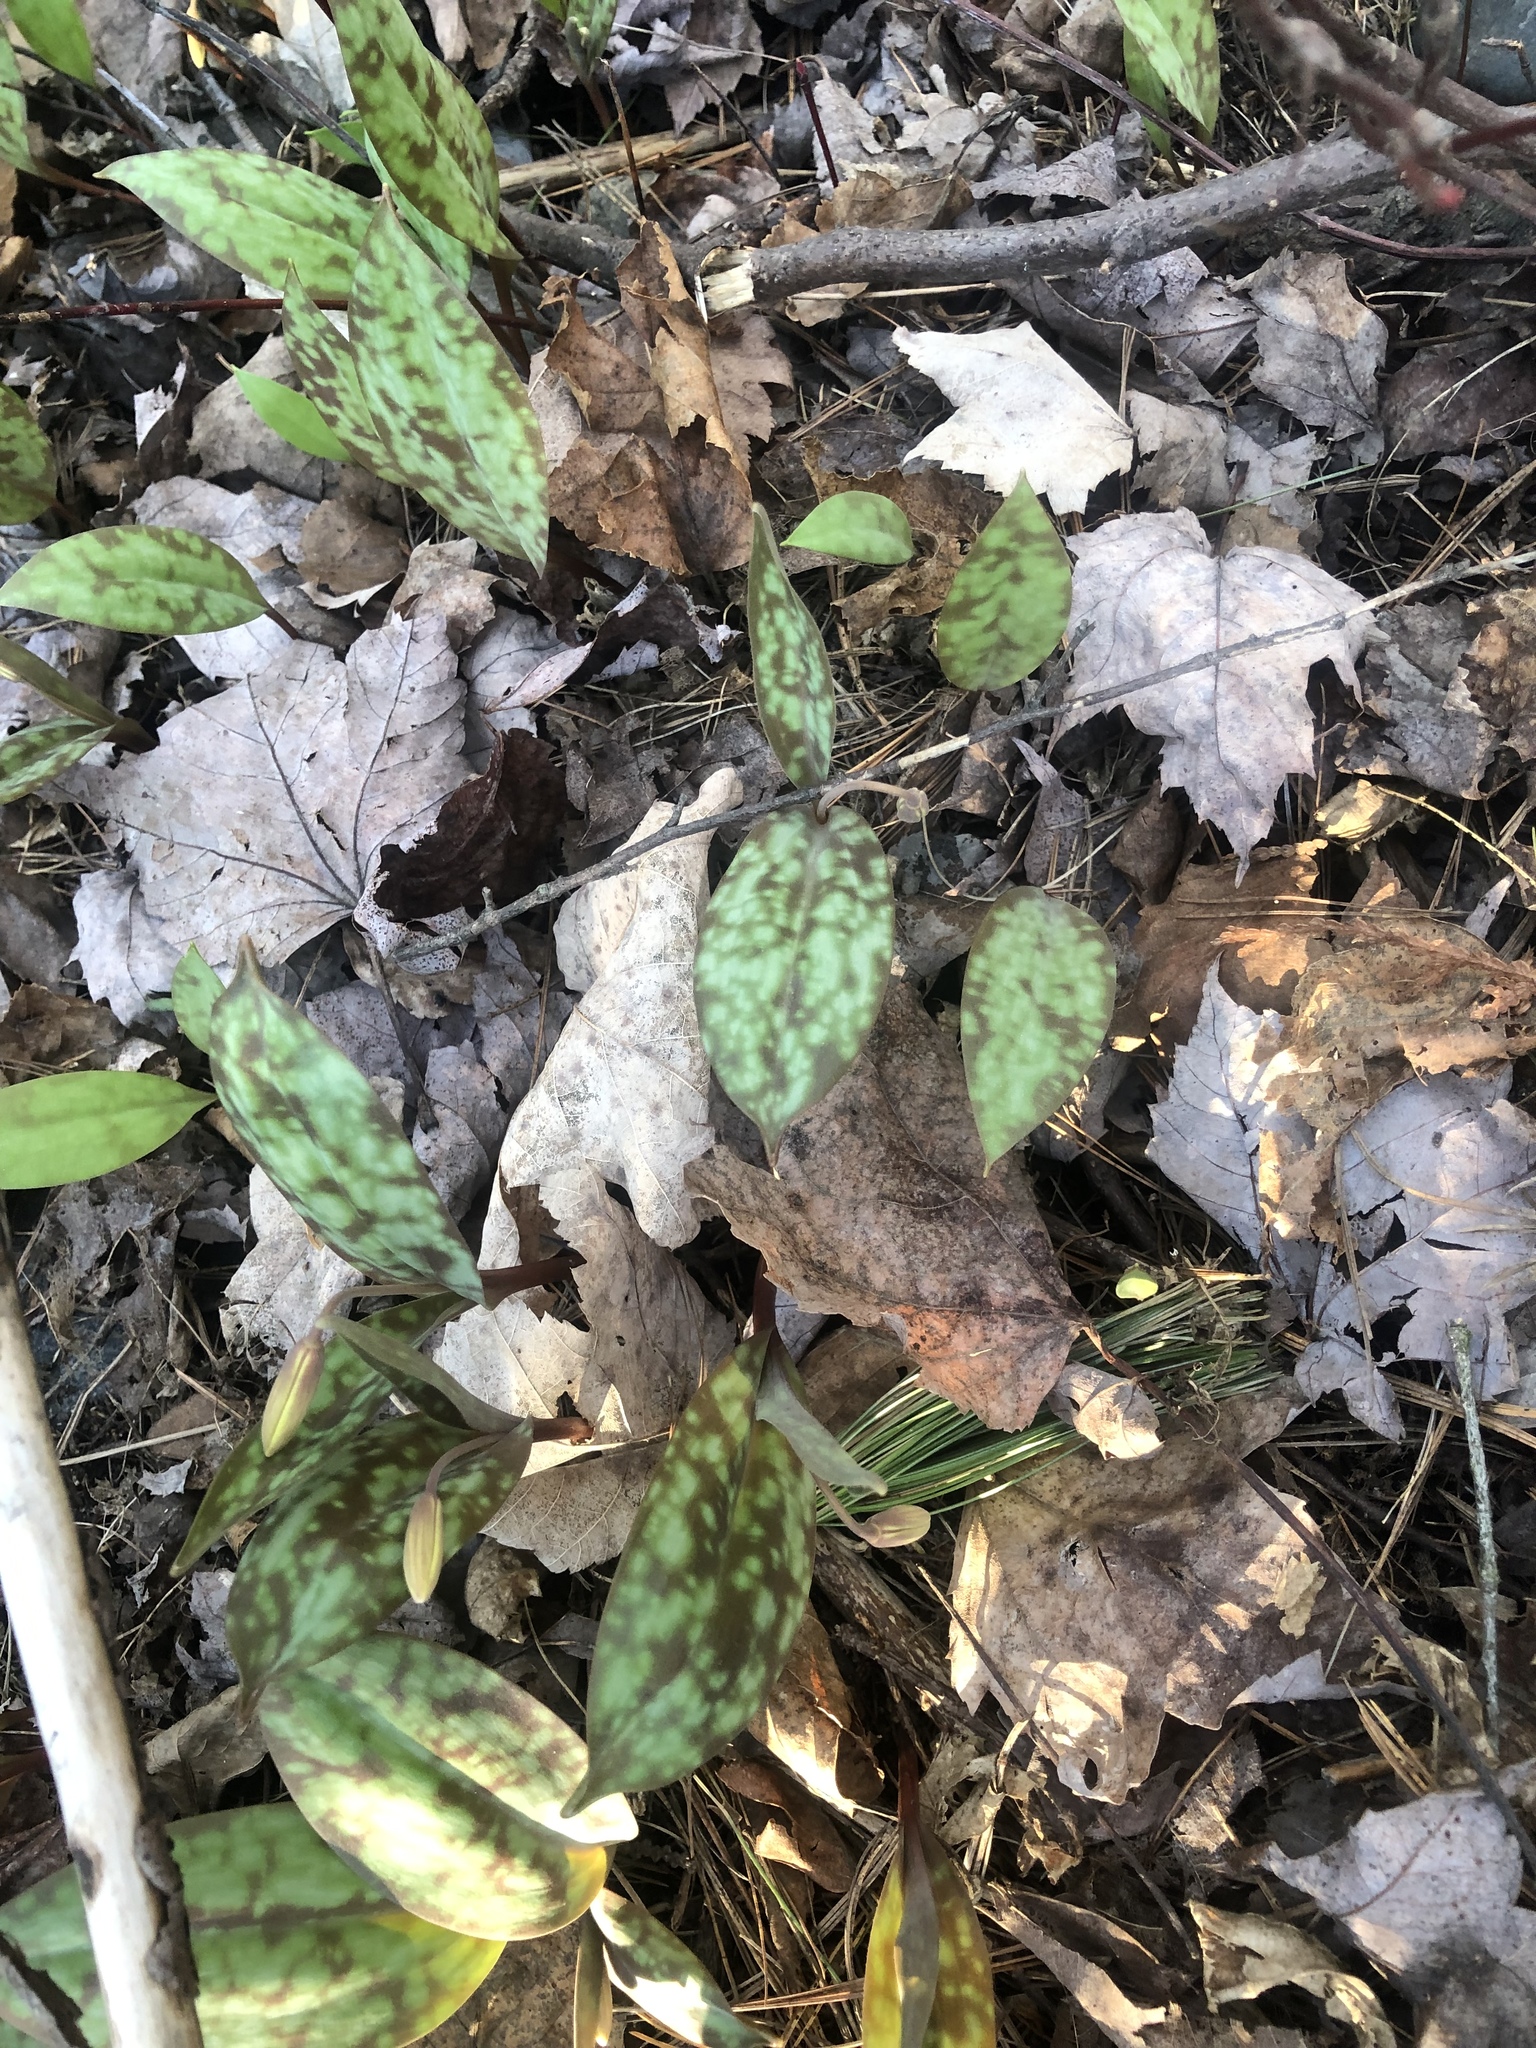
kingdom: Plantae
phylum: Tracheophyta
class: Liliopsida
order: Liliales
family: Liliaceae
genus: Erythronium
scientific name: Erythronium americanum
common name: Yellow adder's-tongue
